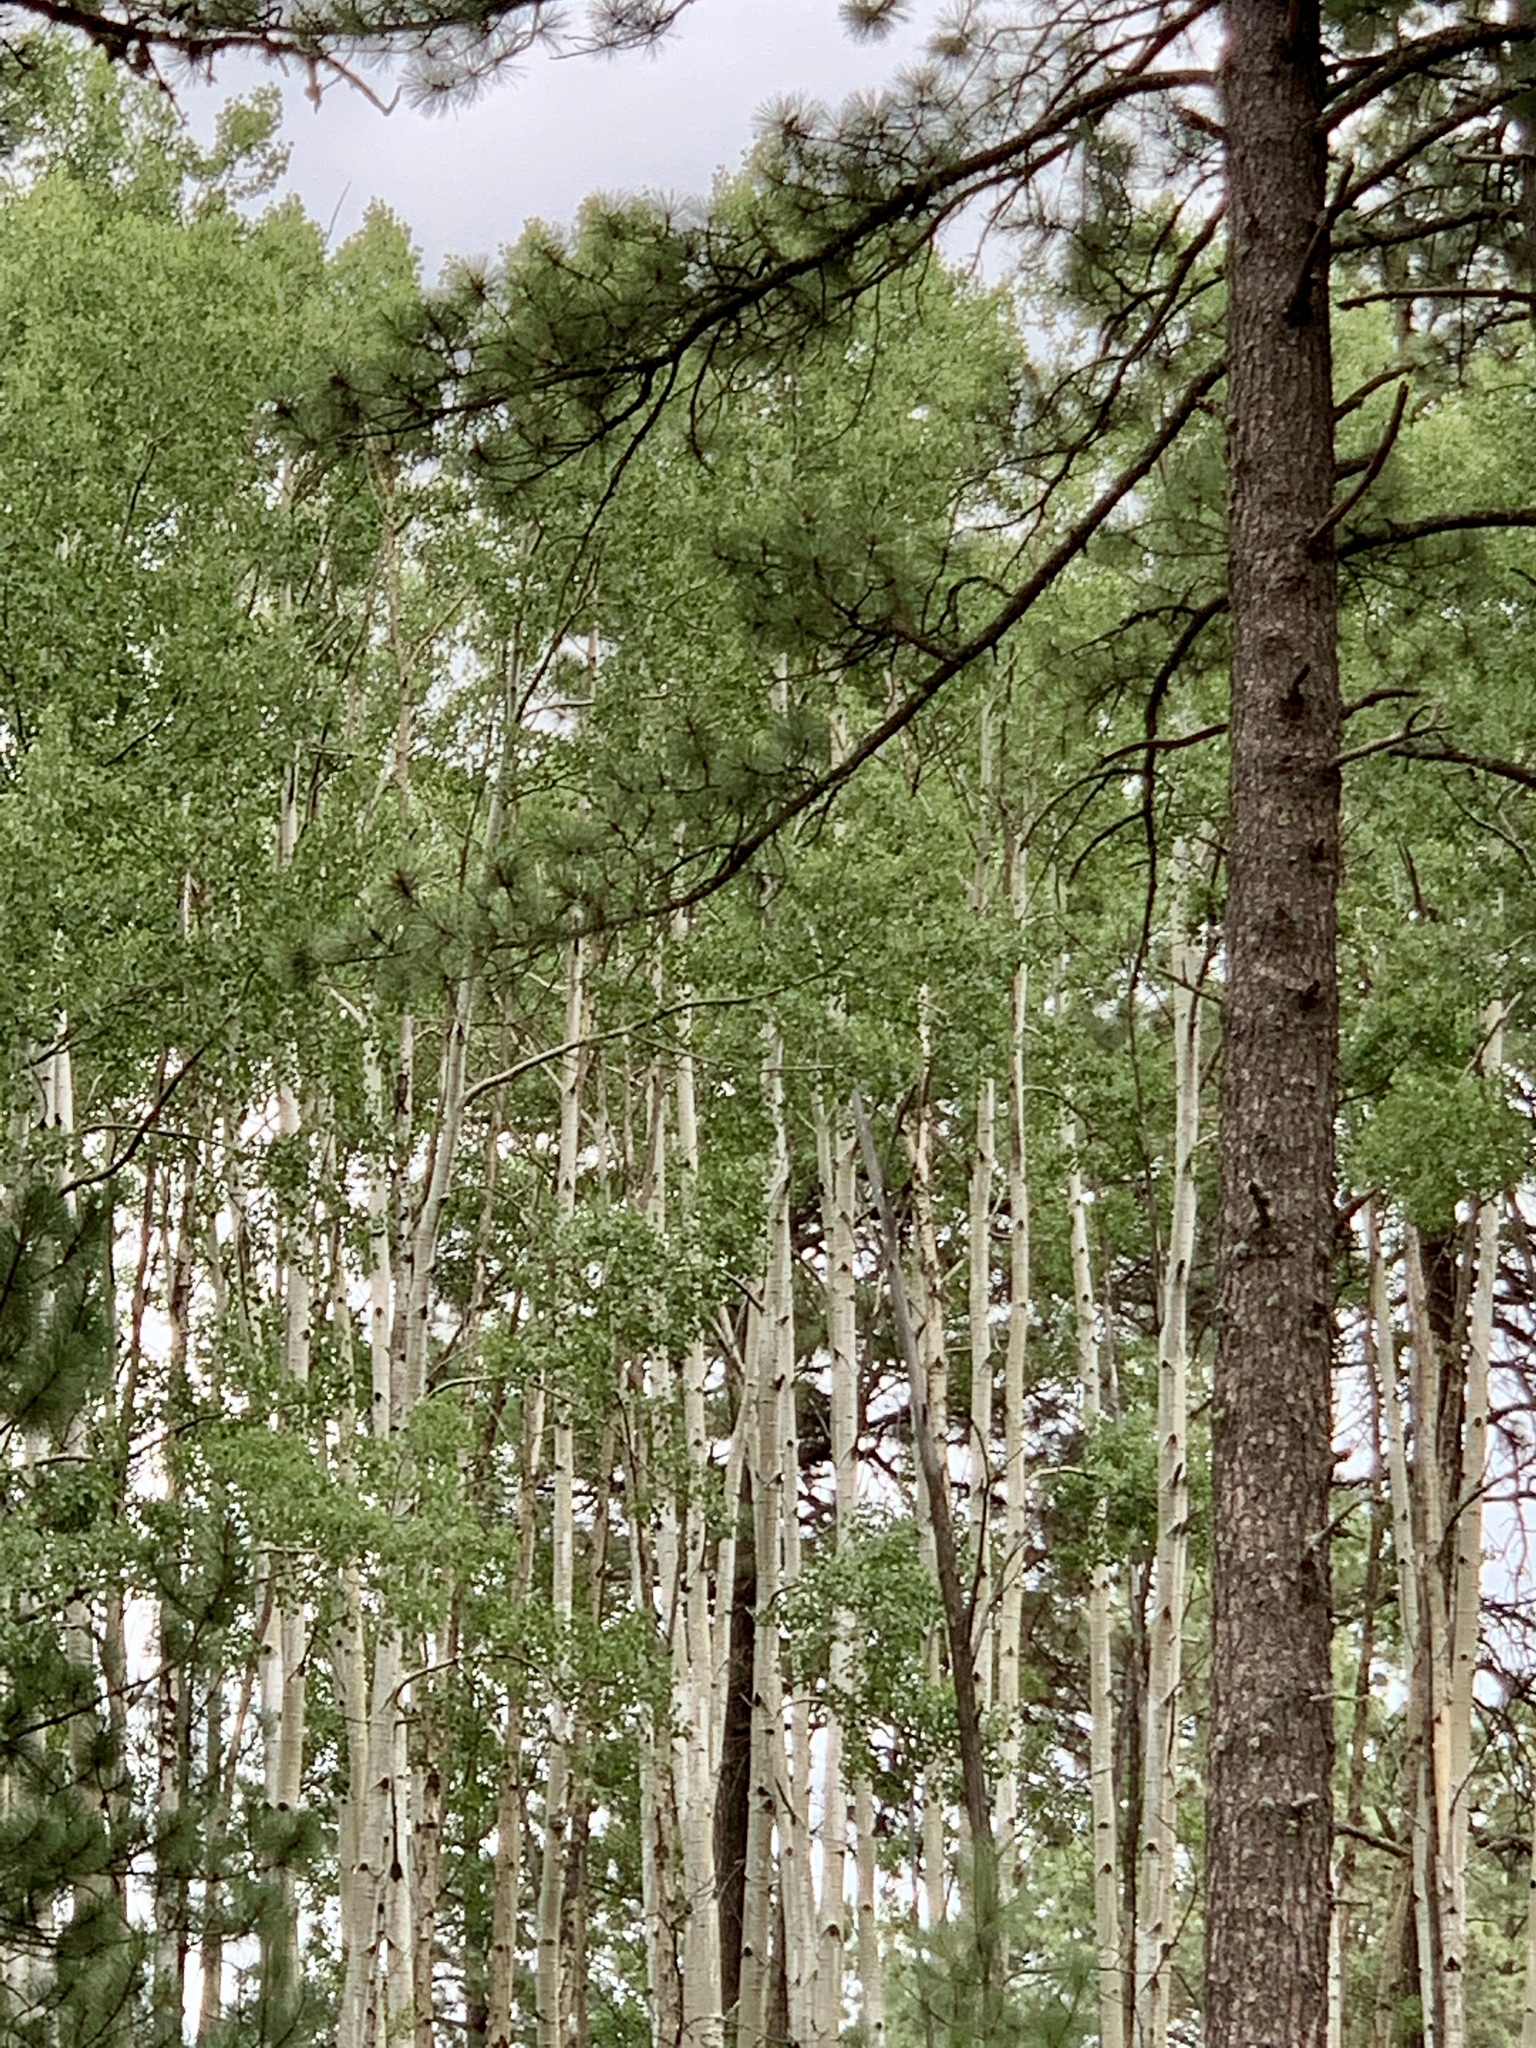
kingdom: Plantae
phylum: Tracheophyta
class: Magnoliopsida
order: Malpighiales
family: Salicaceae
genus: Populus
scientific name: Populus tremuloides
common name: Quaking aspen
